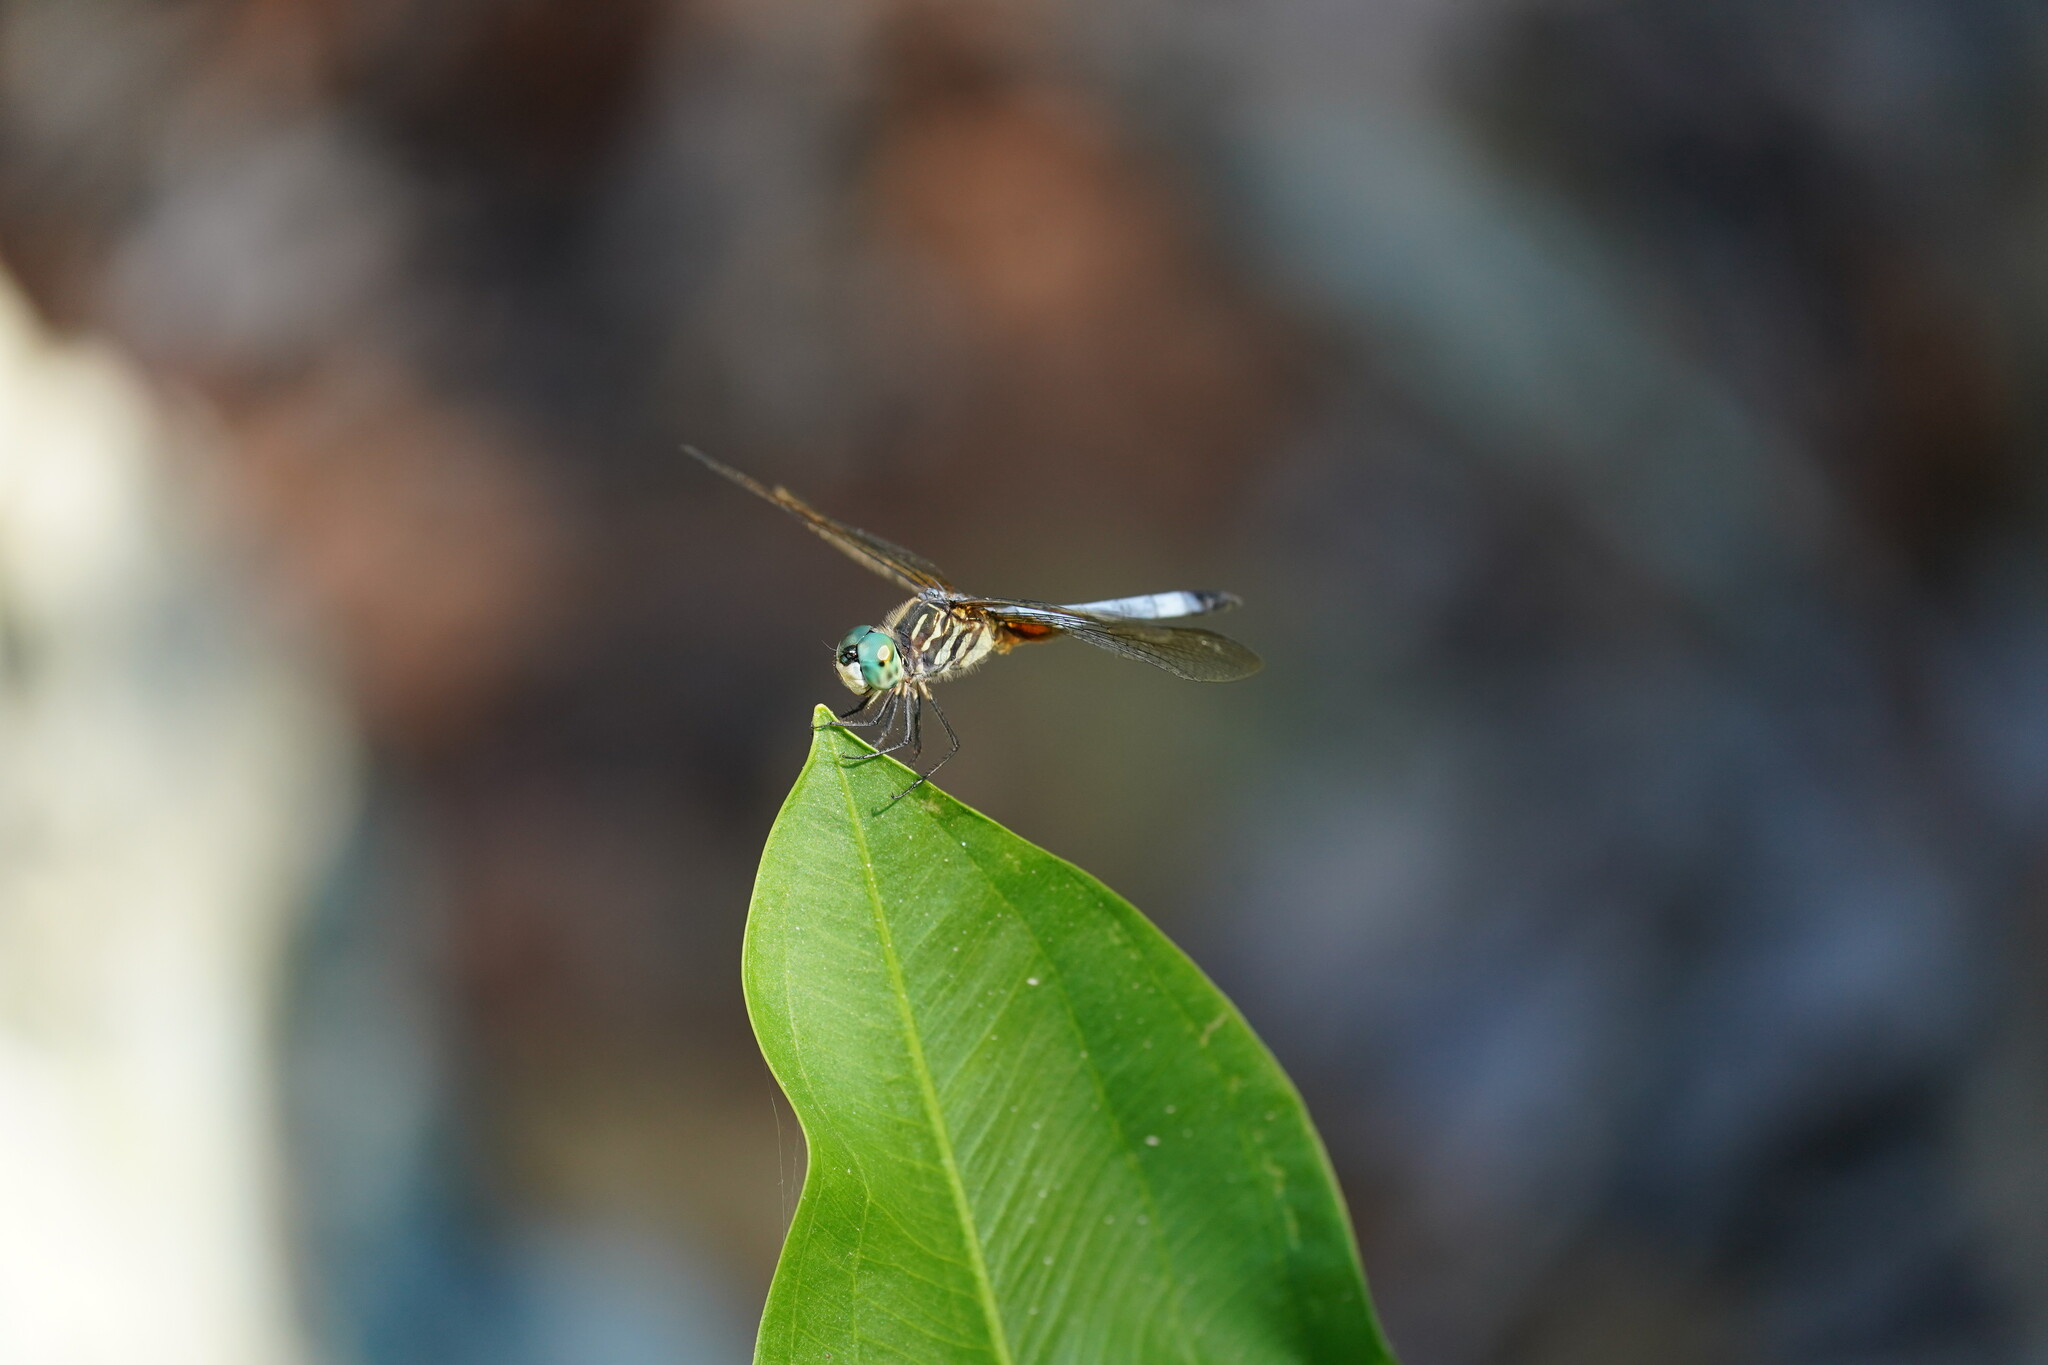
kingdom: Animalia
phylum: Arthropoda
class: Insecta
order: Odonata
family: Libellulidae
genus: Pachydiplax
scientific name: Pachydiplax longipennis
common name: Blue dasher
